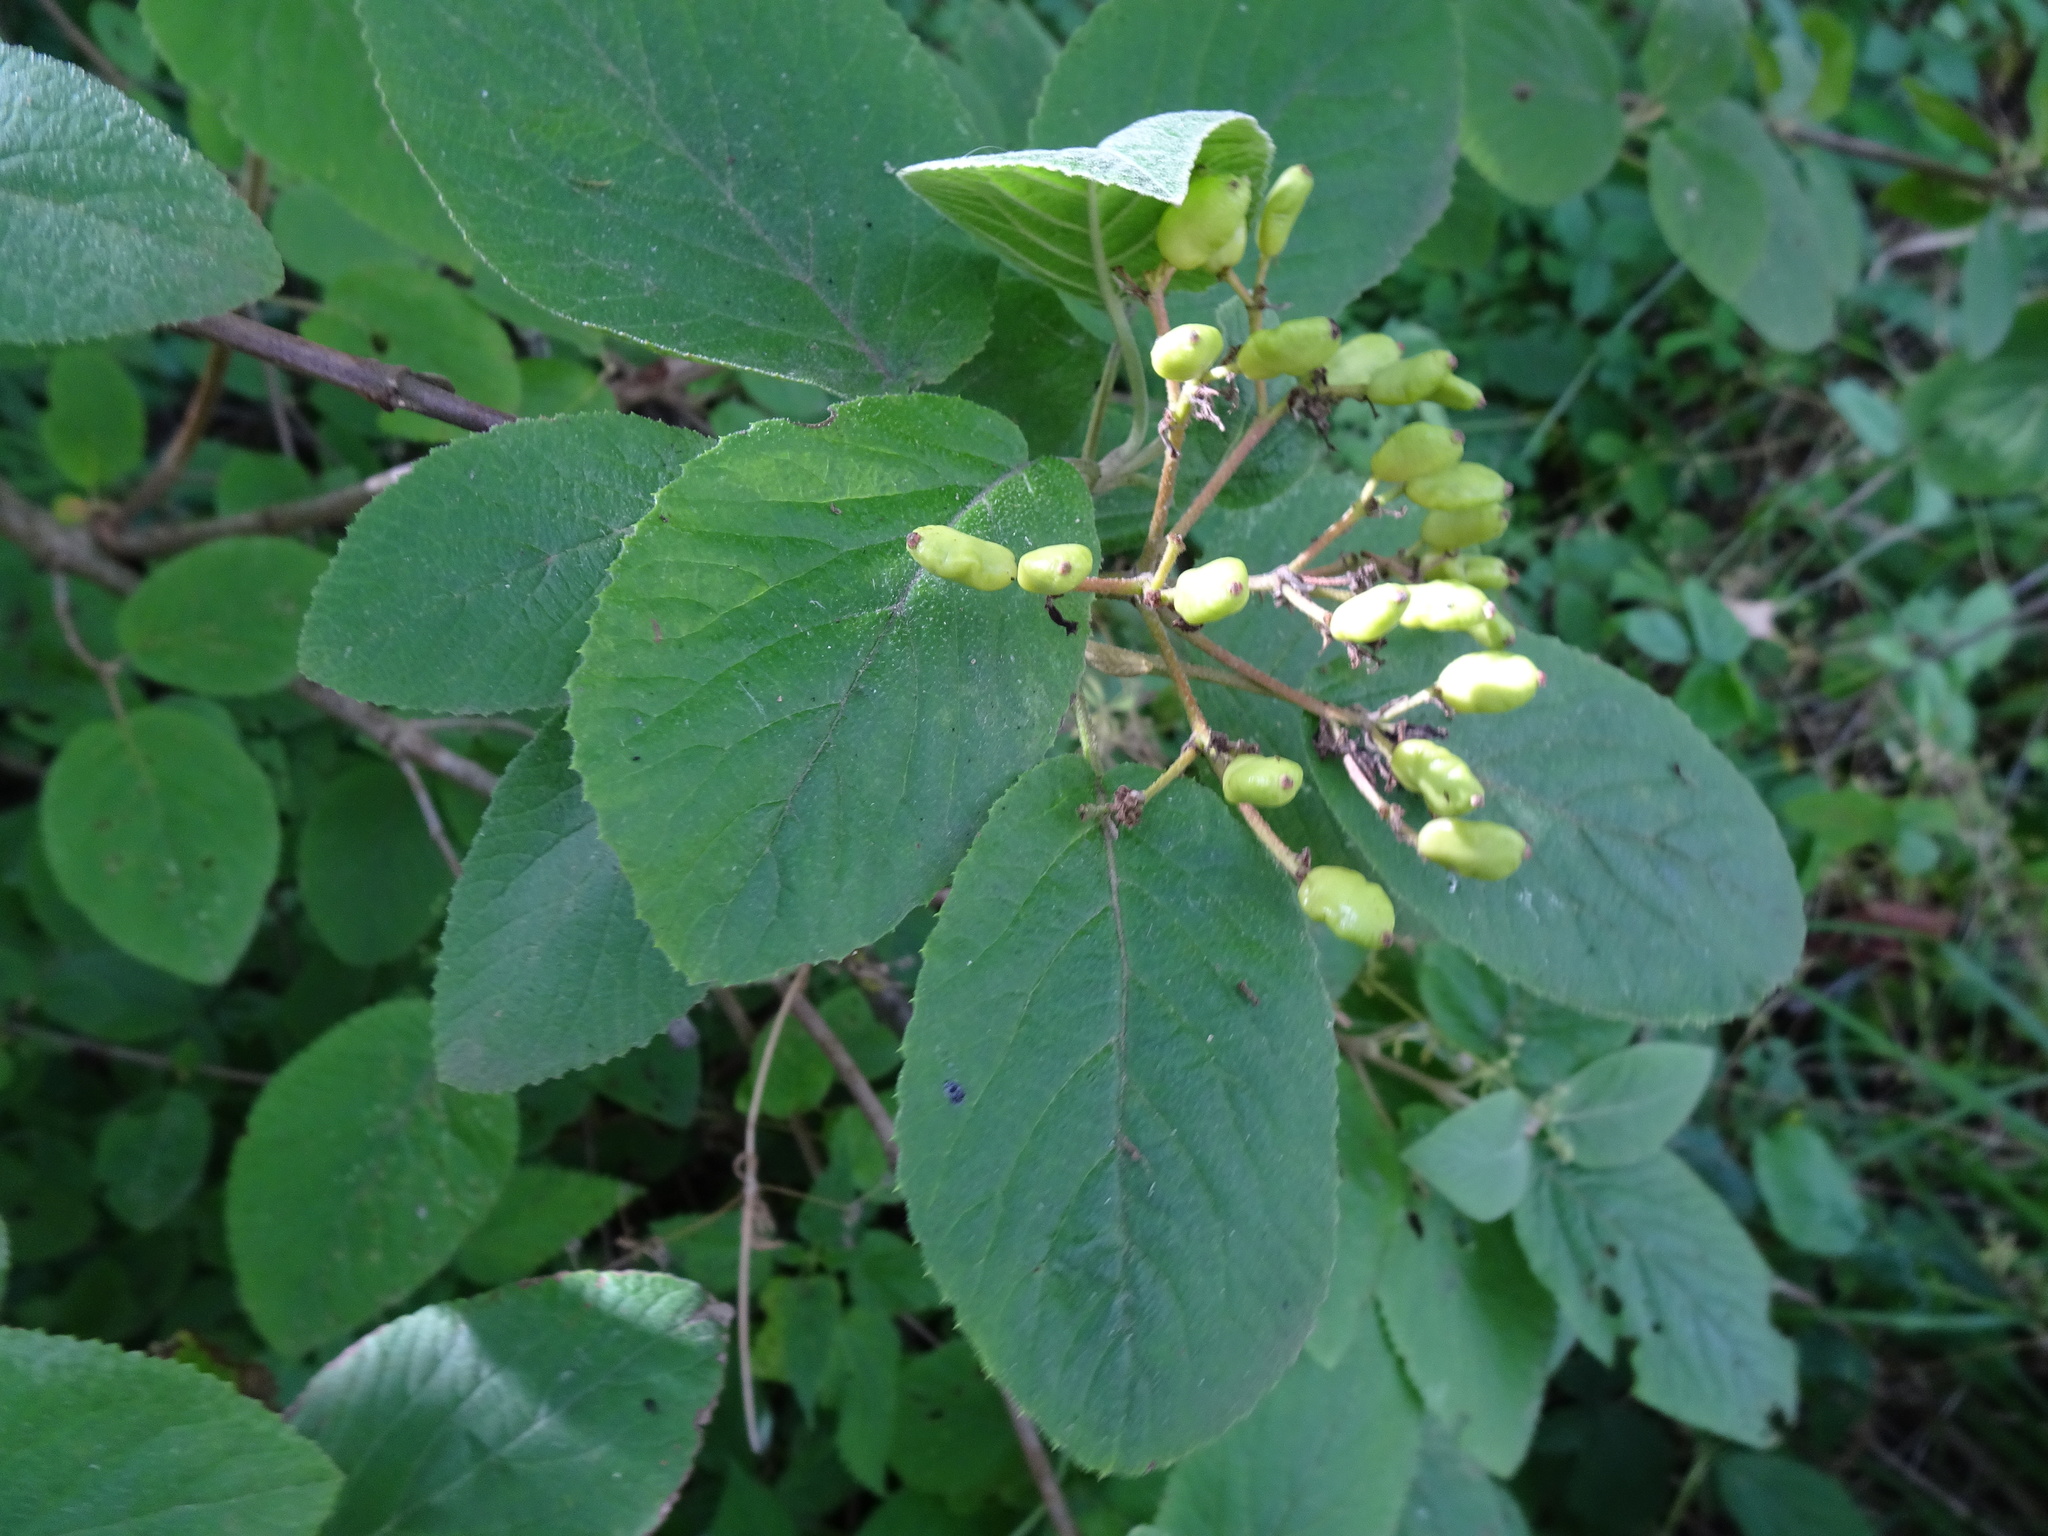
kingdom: Plantae
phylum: Tracheophyta
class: Magnoliopsida
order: Dipsacales
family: Viburnaceae
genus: Viburnum
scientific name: Viburnum lantana
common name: Wayfaring tree
